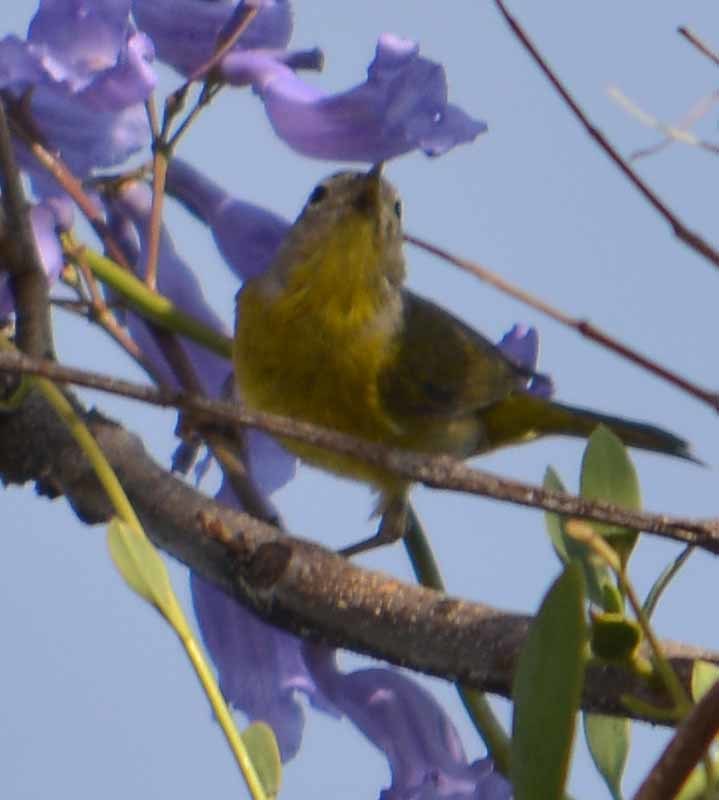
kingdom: Animalia
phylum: Chordata
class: Aves
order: Passeriformes
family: Parulidae
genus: Leiothlypis
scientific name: Leiothlypis ruficapilla
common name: Nashville warbler
